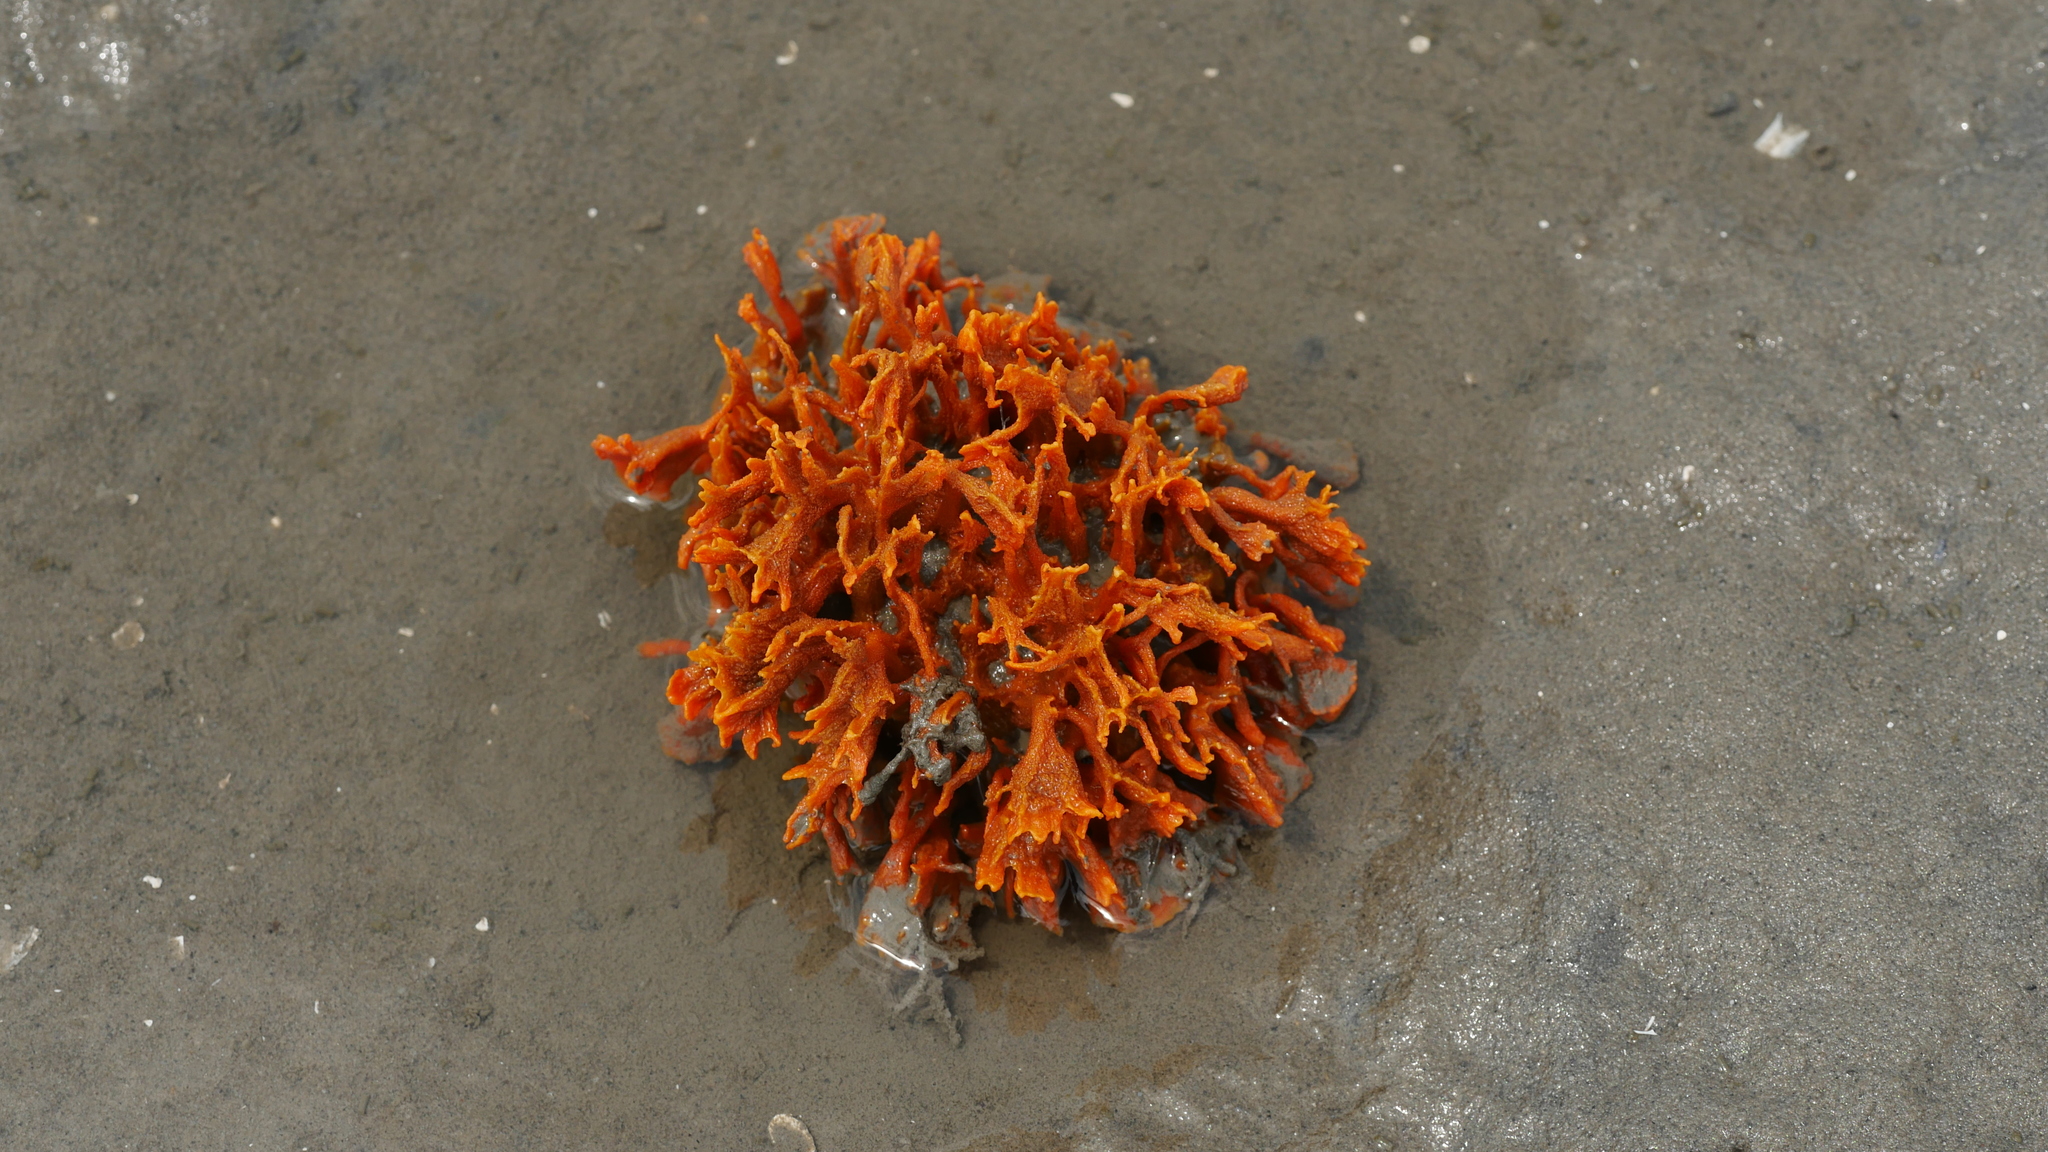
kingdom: Animalia
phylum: Porifera
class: Demospongiae
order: Suberitida
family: Halichondriidae
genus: Hymeniacidon
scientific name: Hymeniacidon heliophila
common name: Diurnal horny sponge
